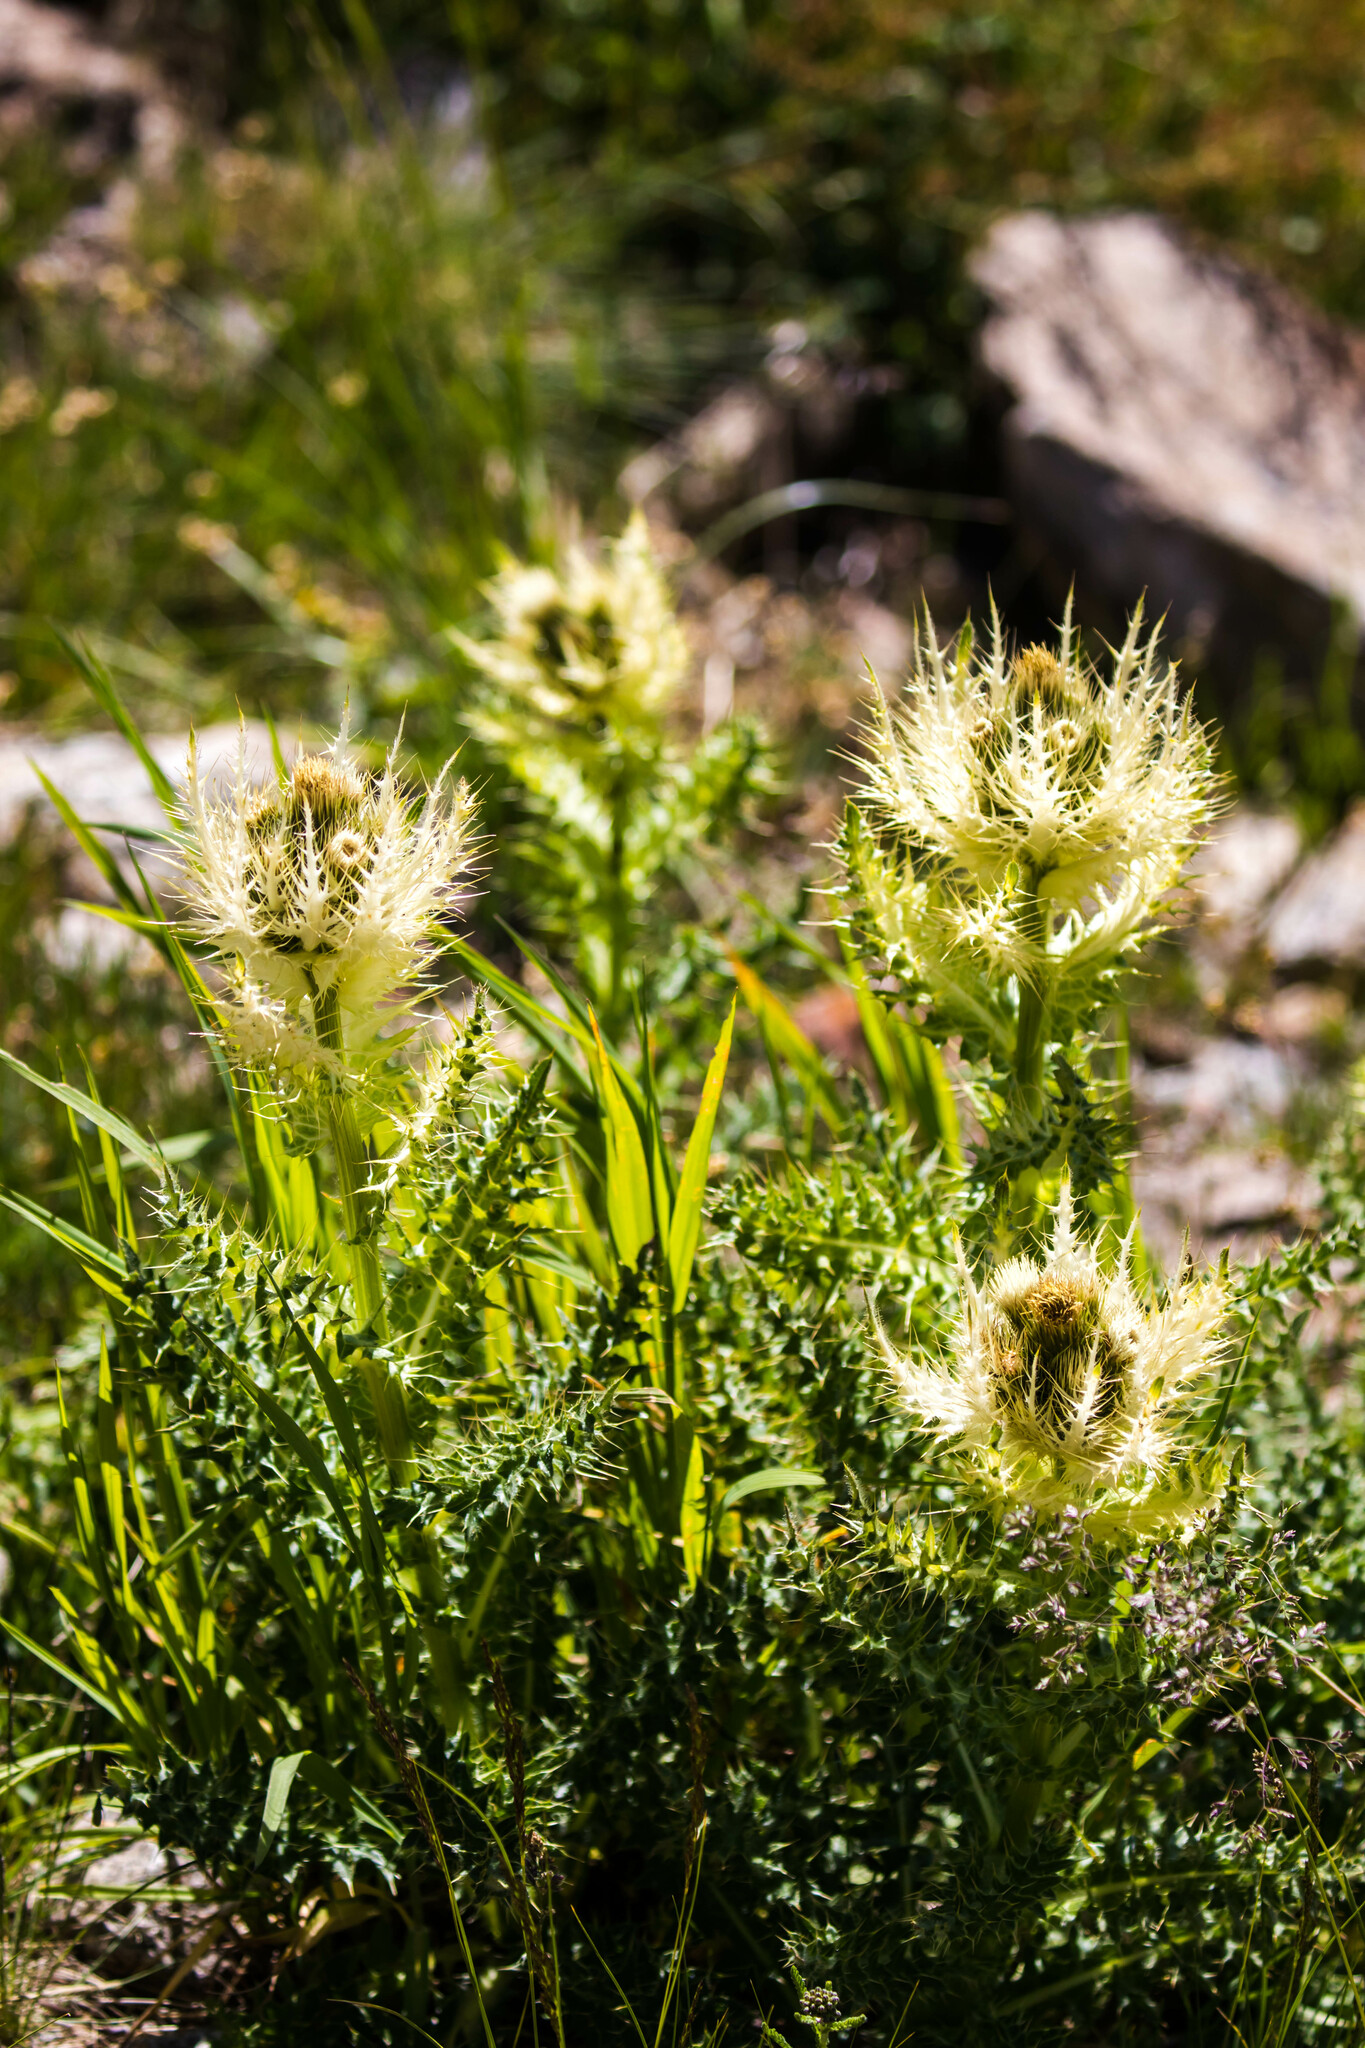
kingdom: Plantae
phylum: Tracheophyta
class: Magnoliopsida
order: Asterales
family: Asteraceae
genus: Cirsium
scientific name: Cirsium spinosissimum
